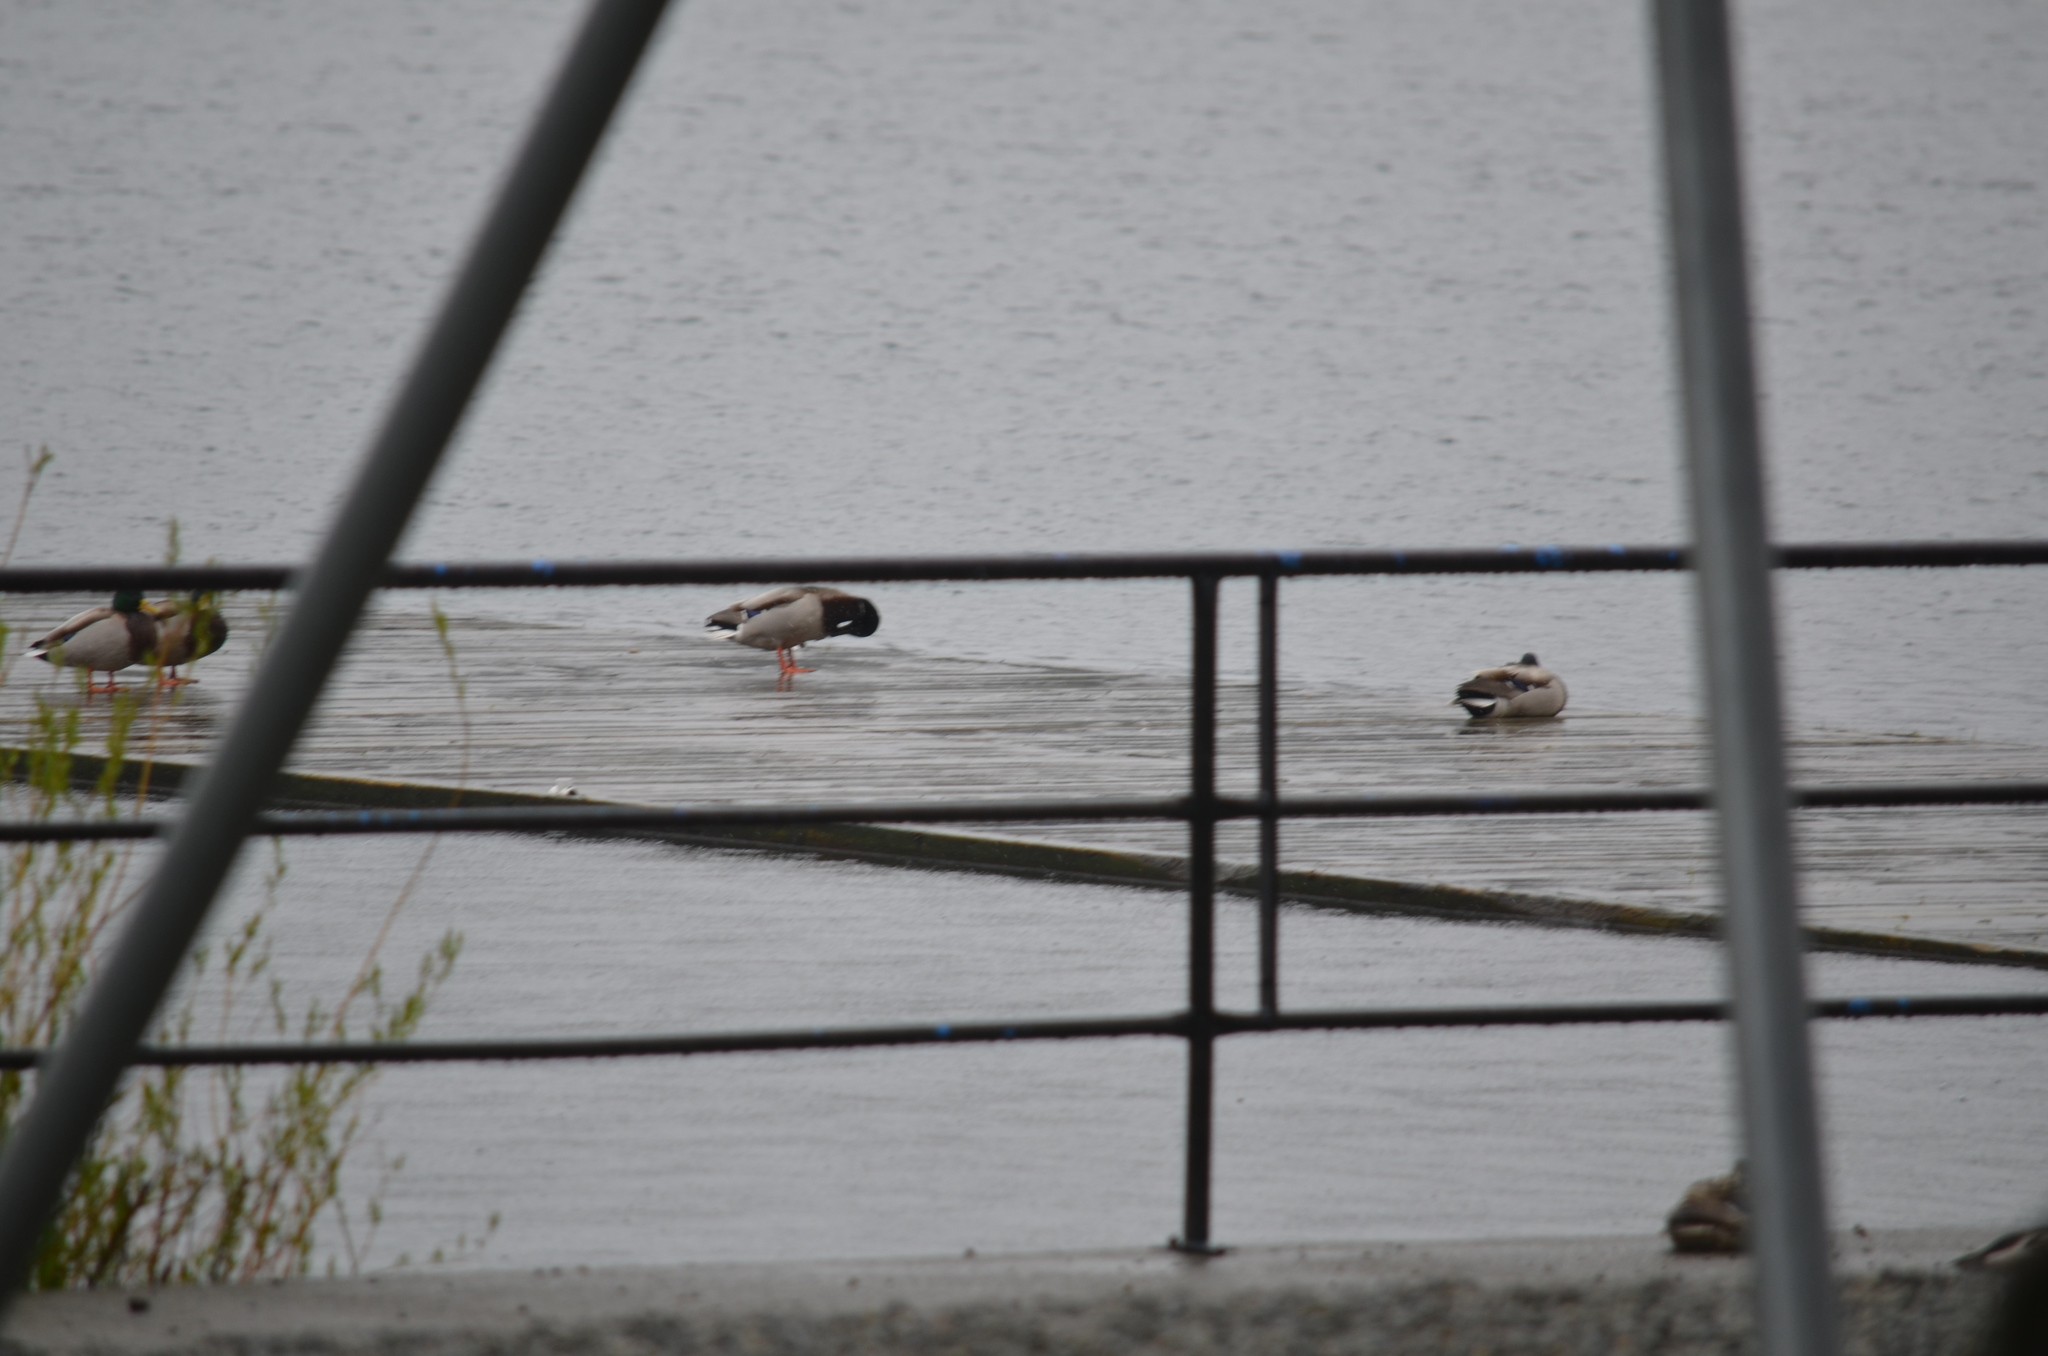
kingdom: Animalia
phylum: Chordata
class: Aves
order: Anseriformes
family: Anatidae
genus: Anas
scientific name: Anas platyrhynchos
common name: Mallard
